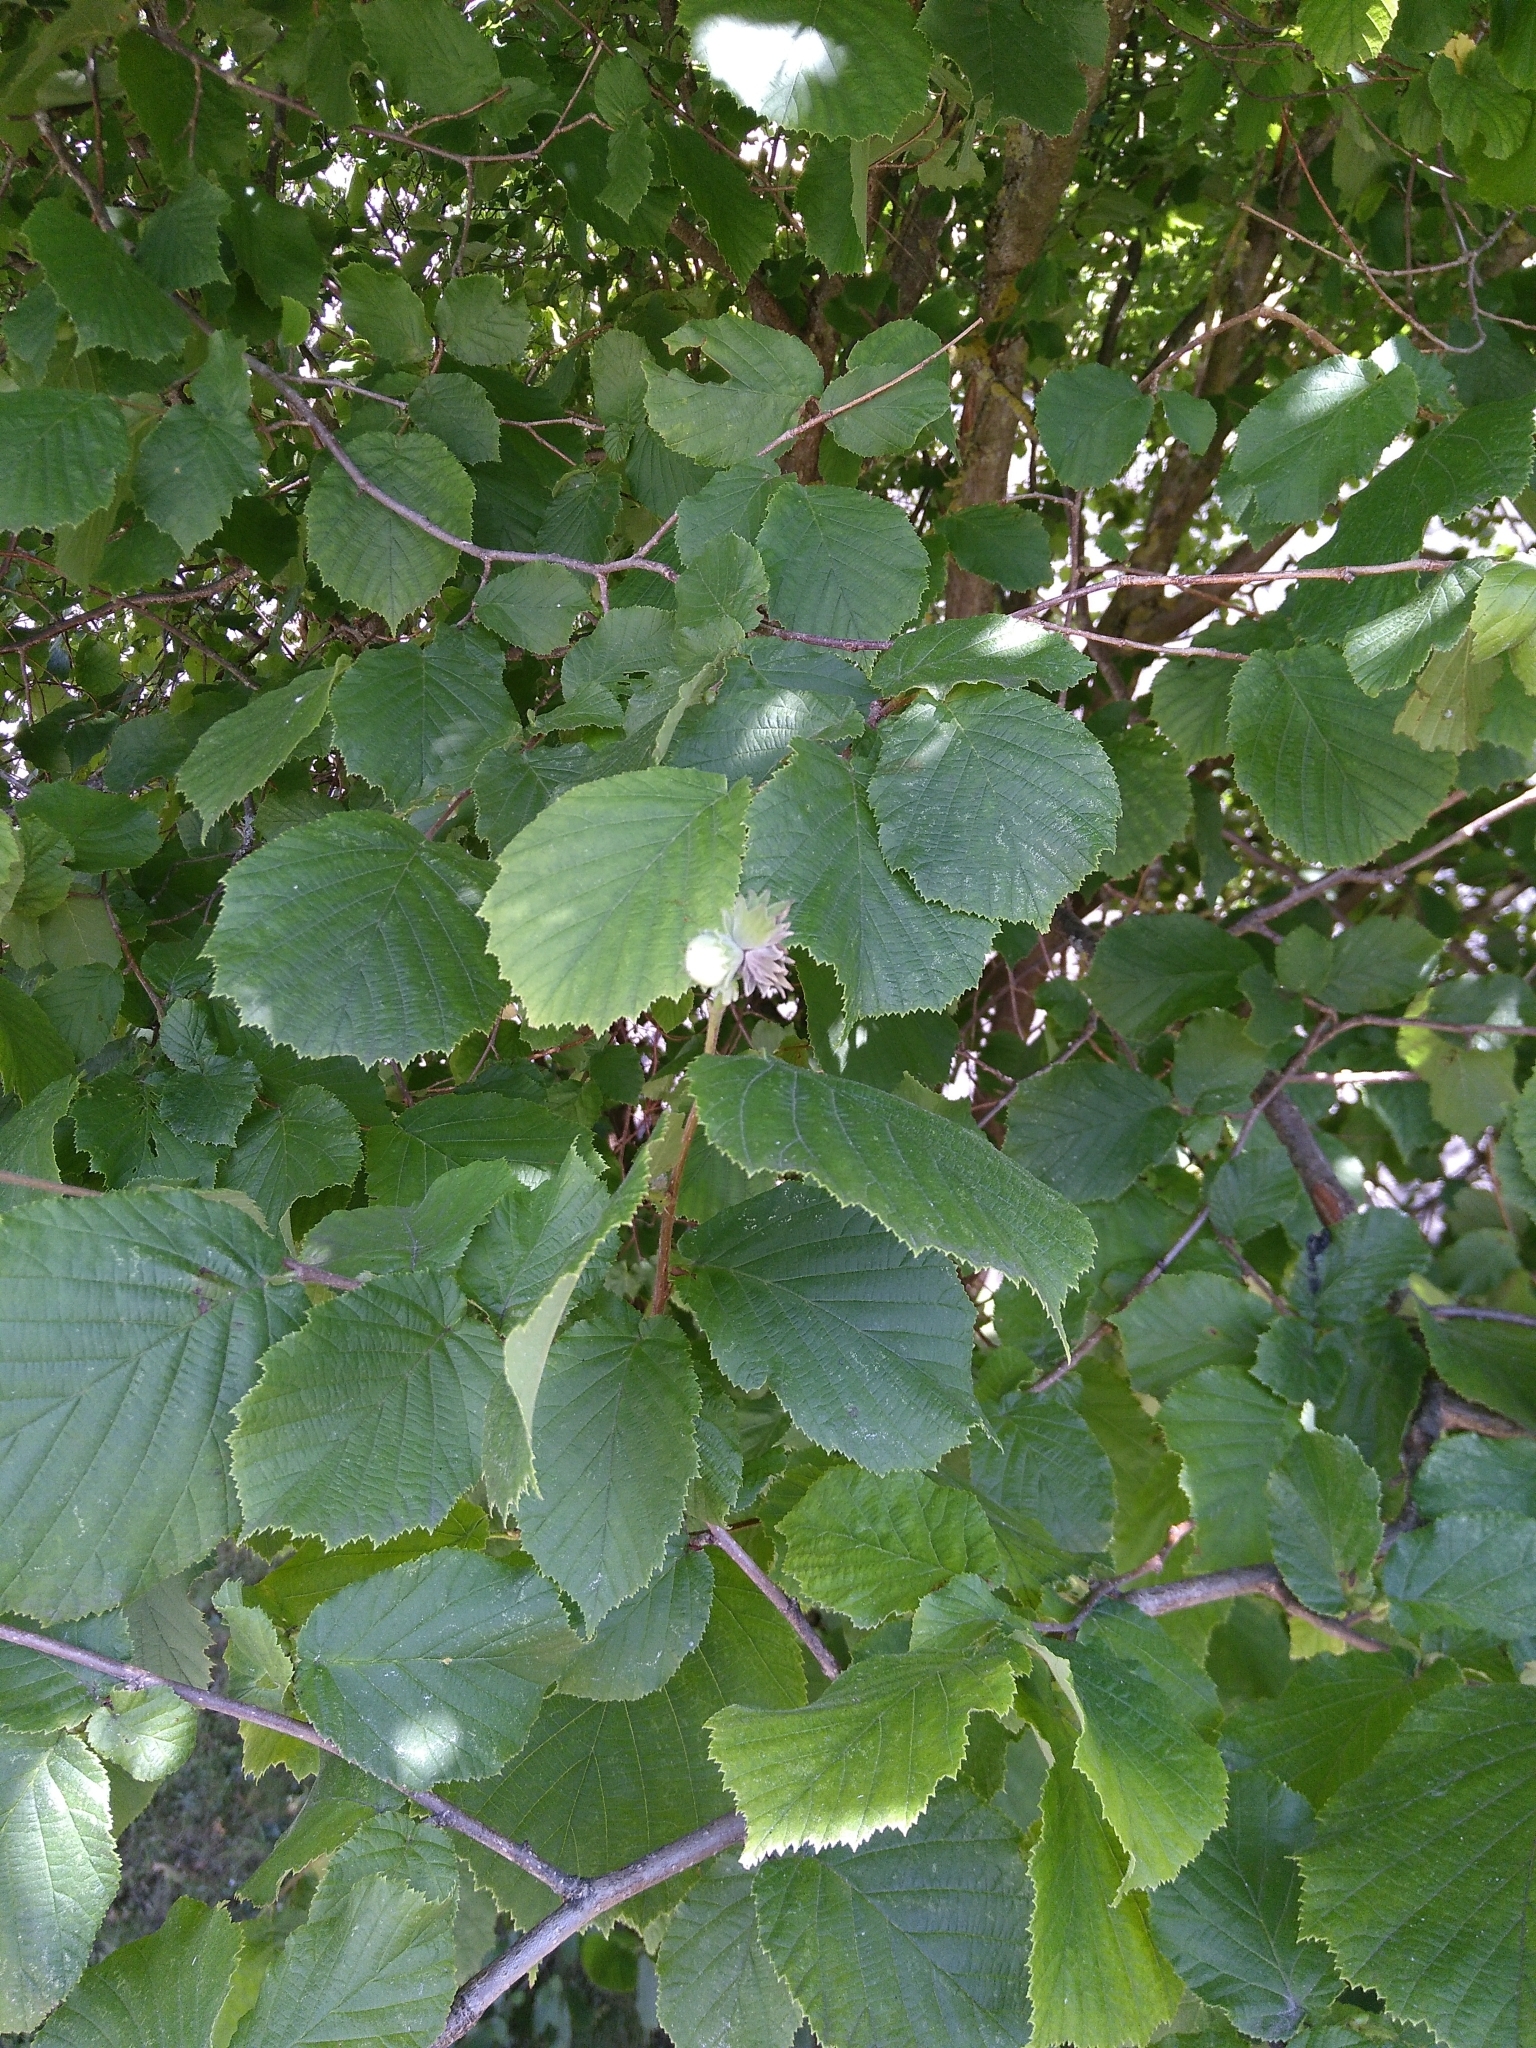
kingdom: Plantae
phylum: Tracheophyta
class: Magnoliopsida
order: Fagales
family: Betulaceae
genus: Corylus
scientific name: Corylus avellana
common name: European hazel
